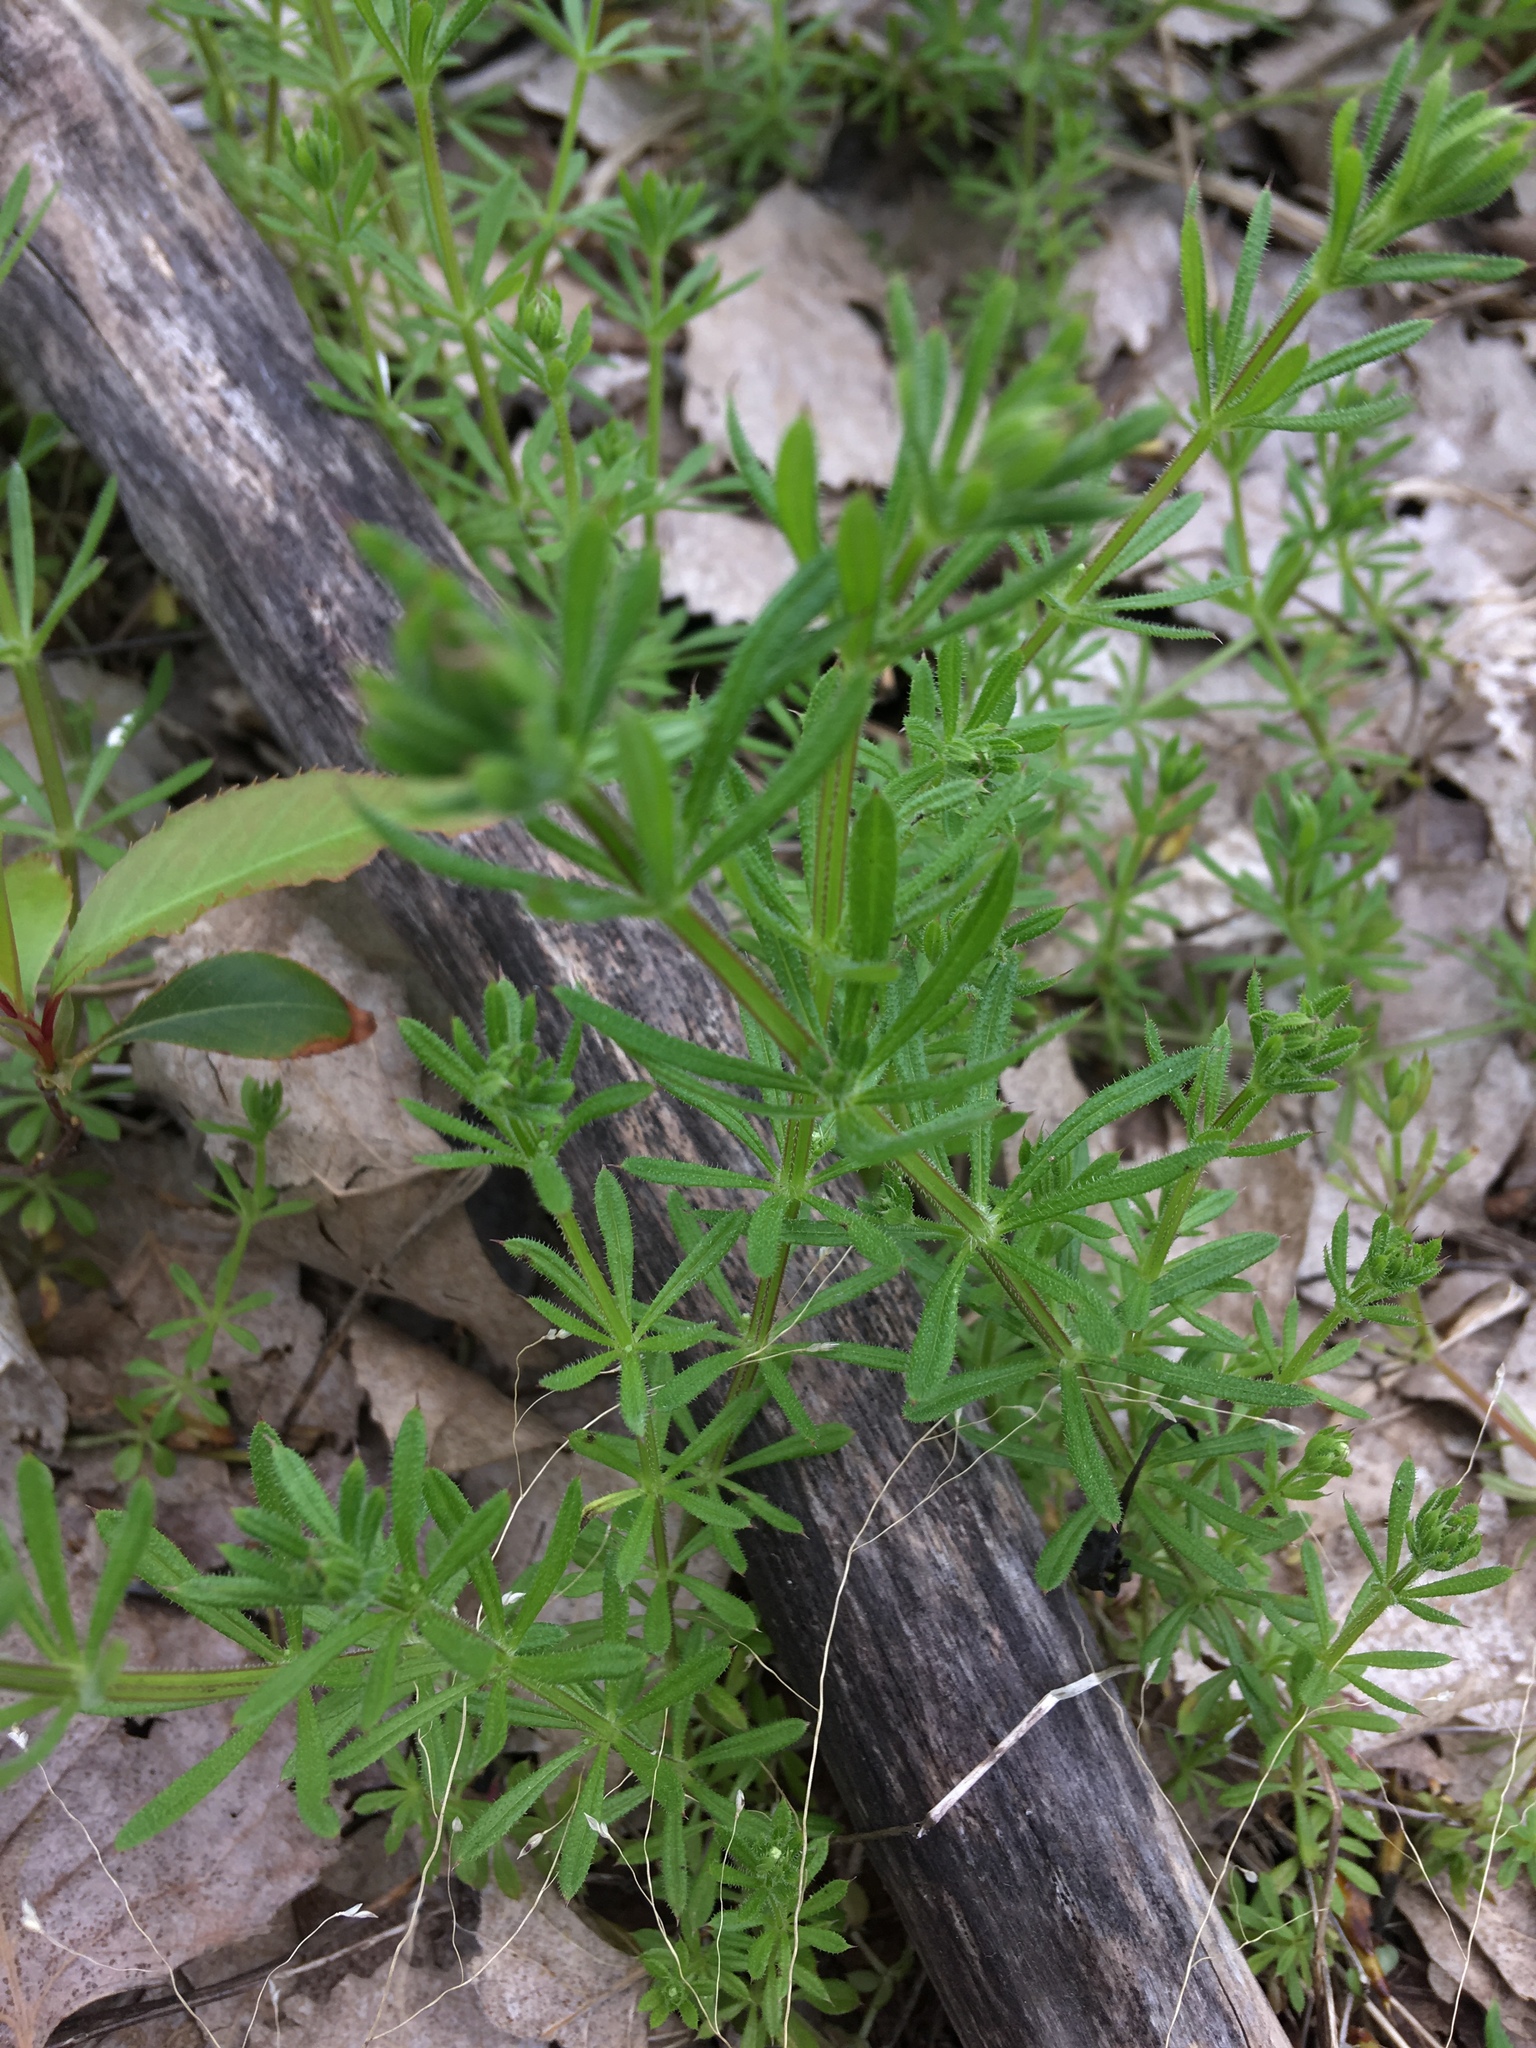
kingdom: Plantae
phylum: Tracheophyta
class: Magnoliopsida
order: Gentianales
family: Rubiaceae
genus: Galium
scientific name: Galium aparine
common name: Cleavers
